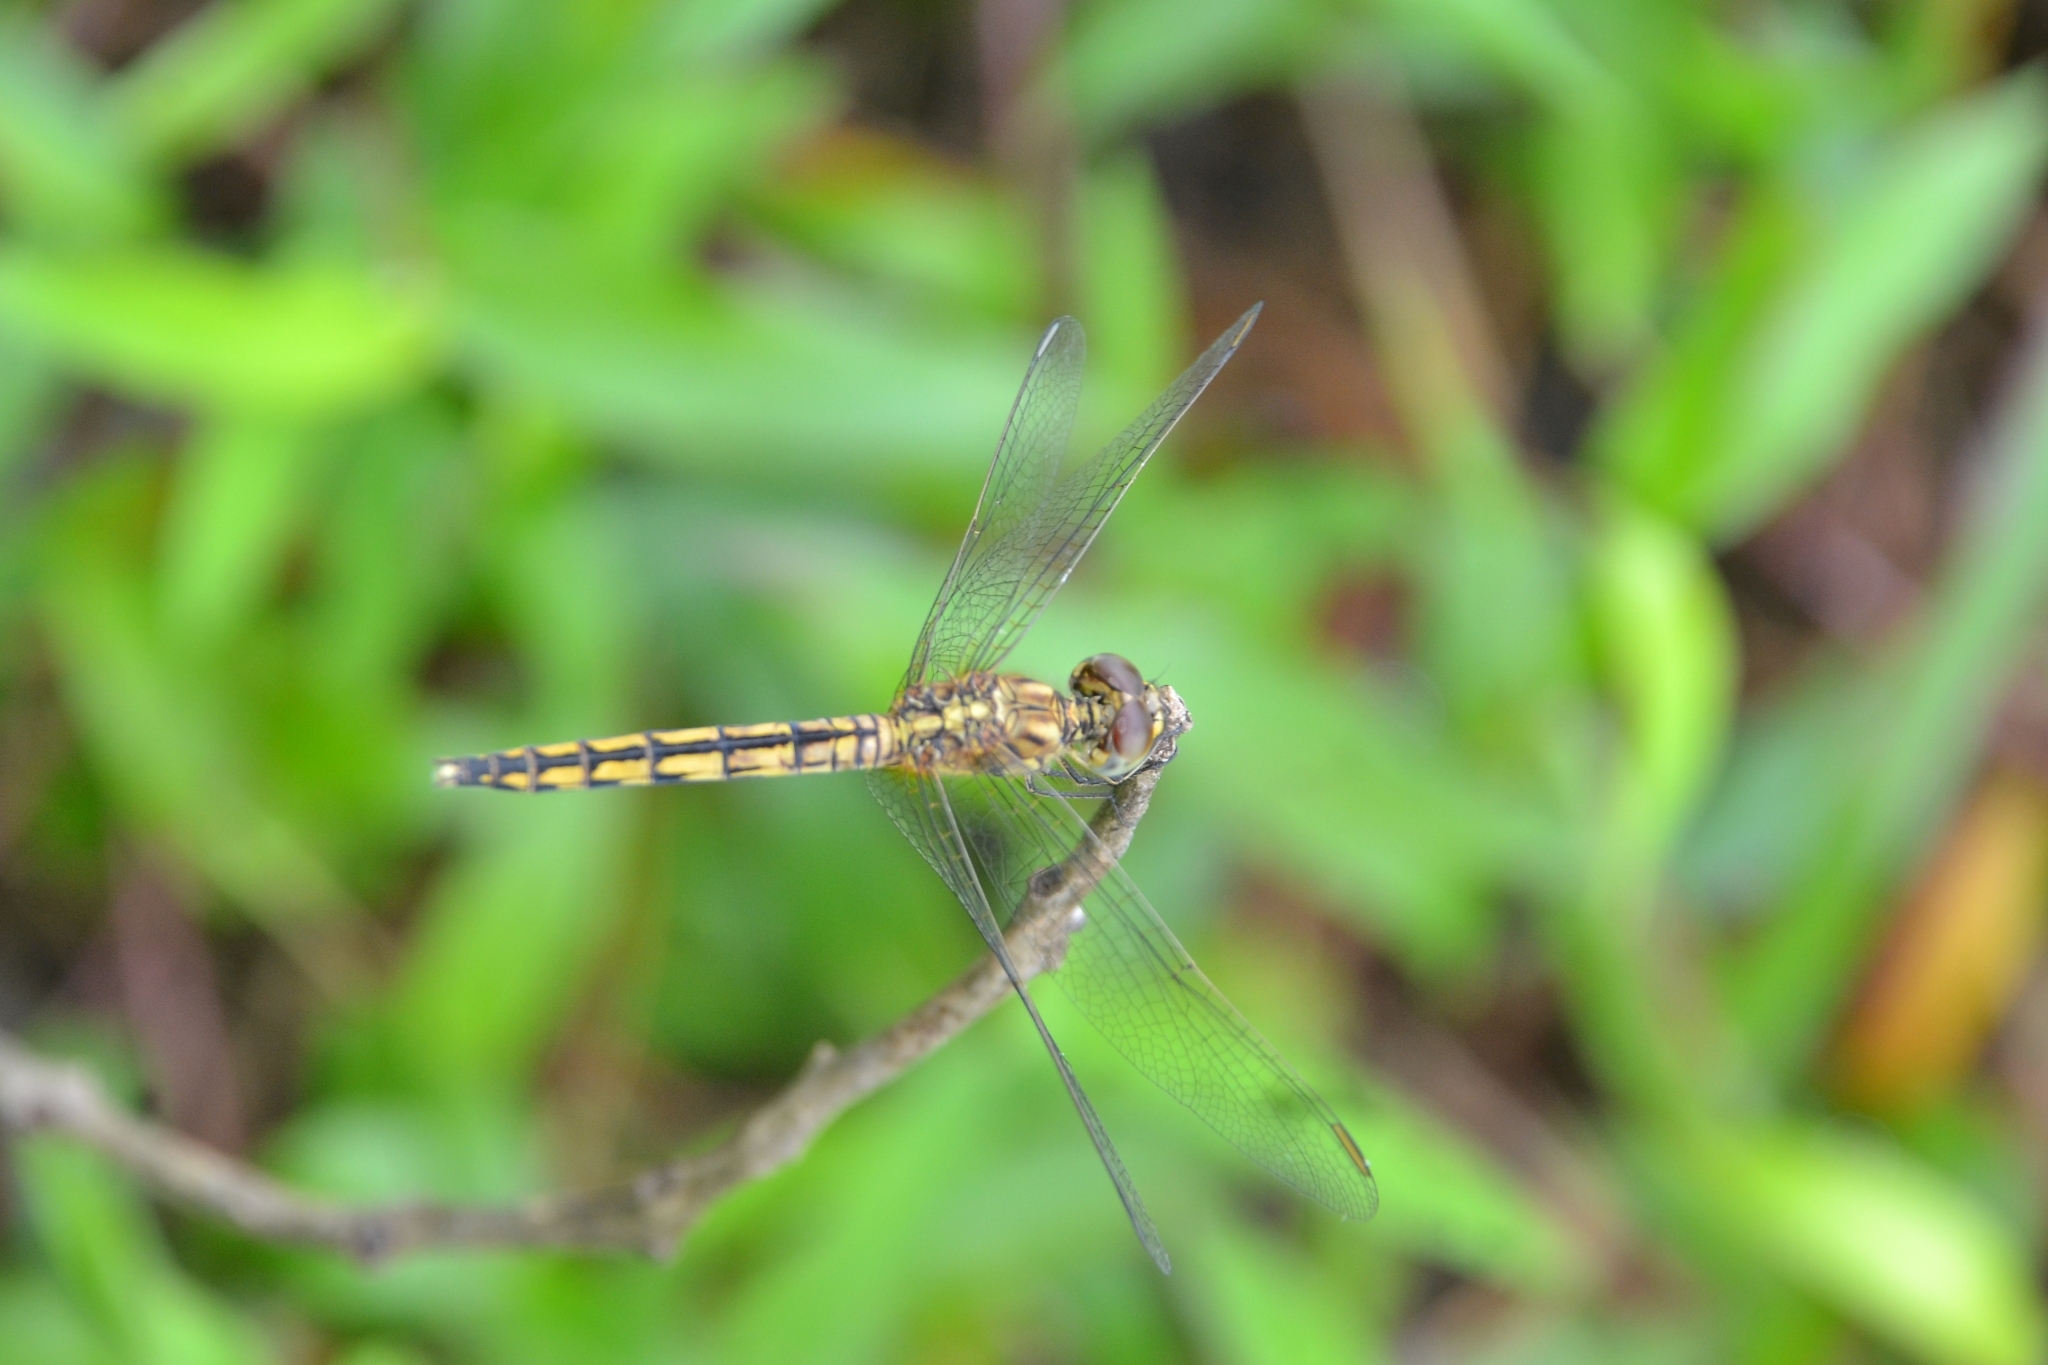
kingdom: Animalia
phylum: Arthropoda
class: Insecta
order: Odonata
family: Libellulidae
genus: Indothemis
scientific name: Indothemis carnatica
